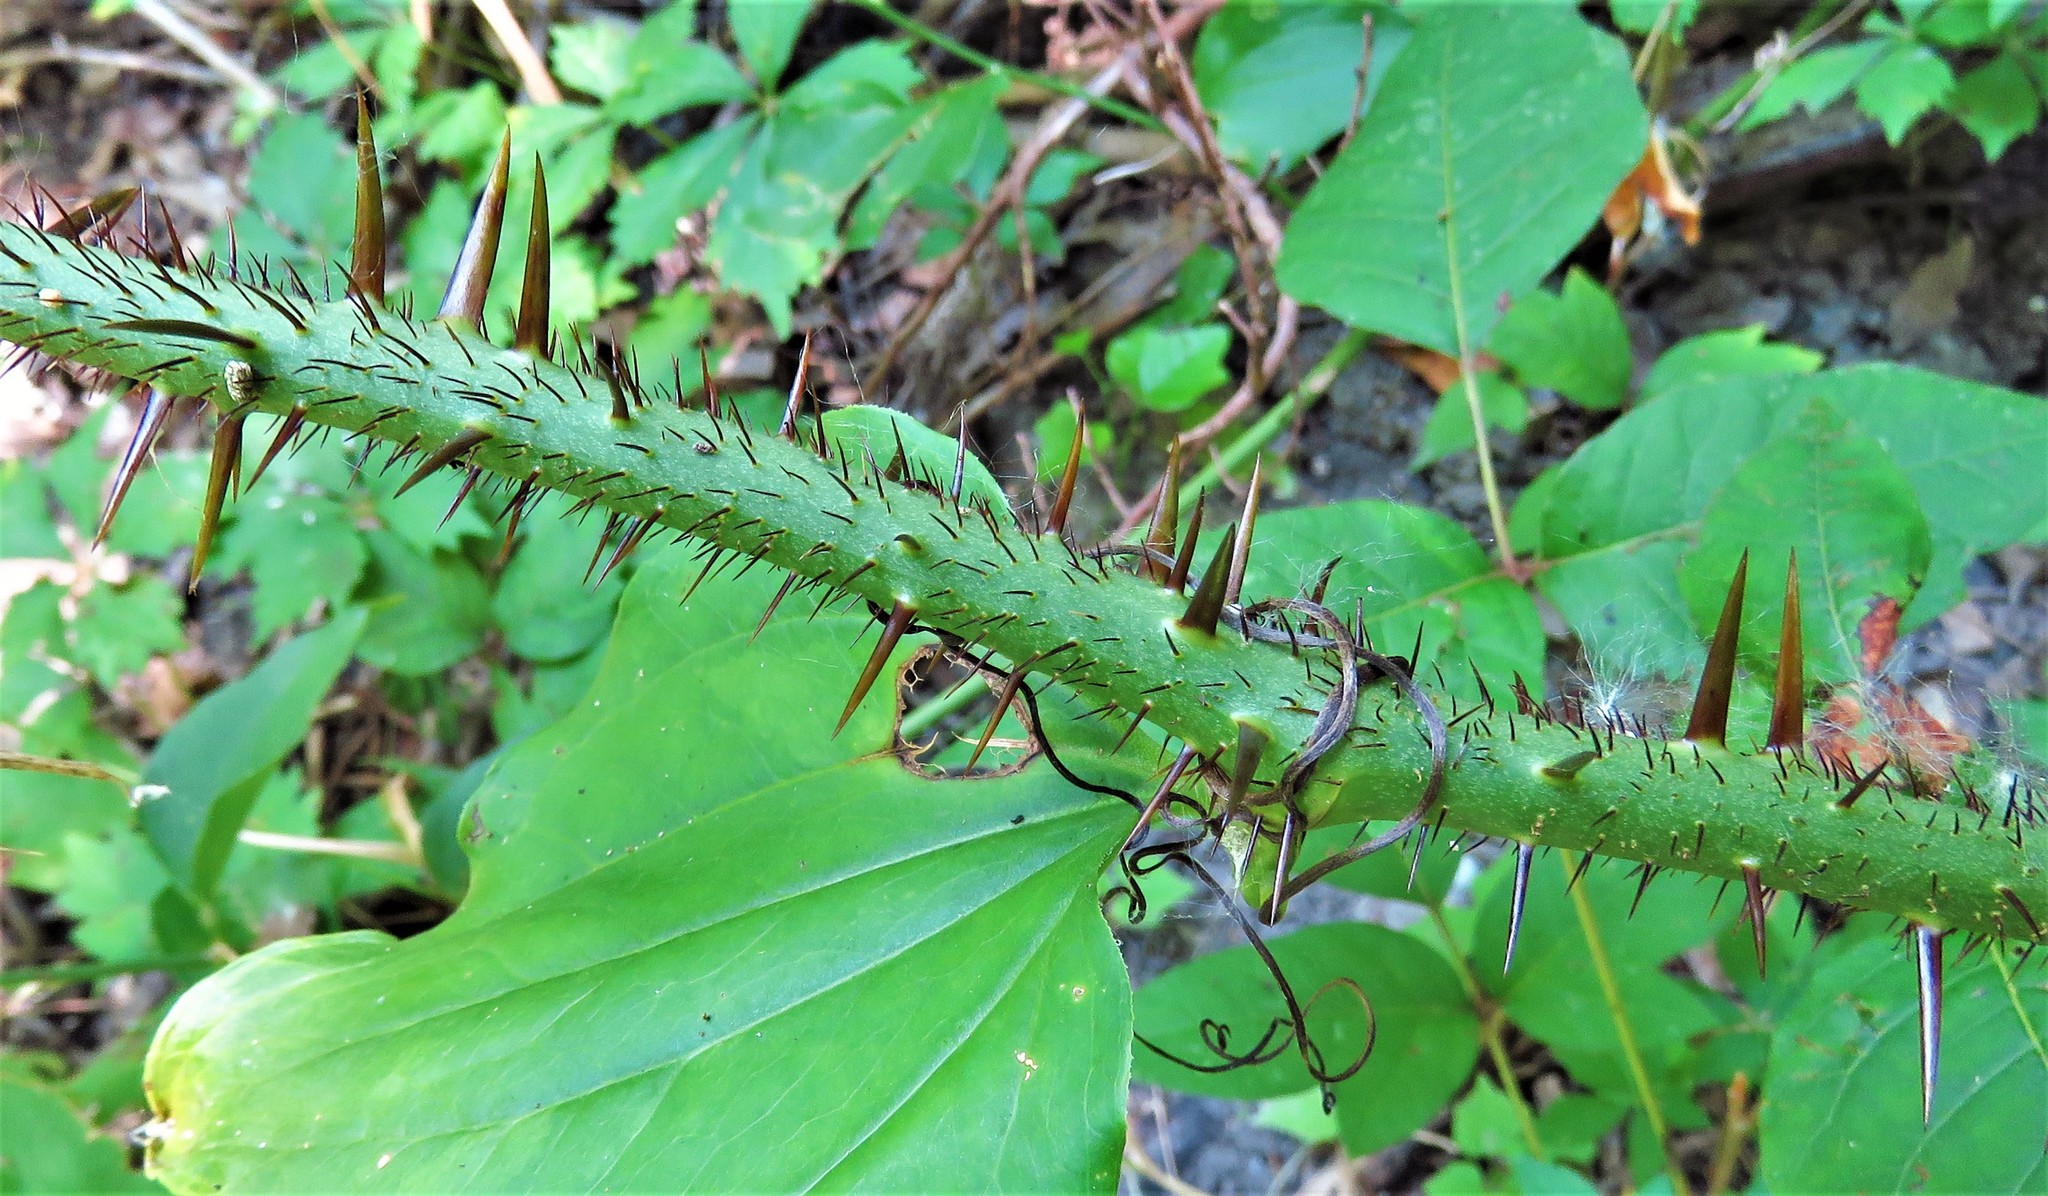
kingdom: Plantae
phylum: Tracheophyta
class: Liliopsida
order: Liliales
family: Smilacaceae
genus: Smilax
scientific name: Smilax tamnoides
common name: Hellfetter
